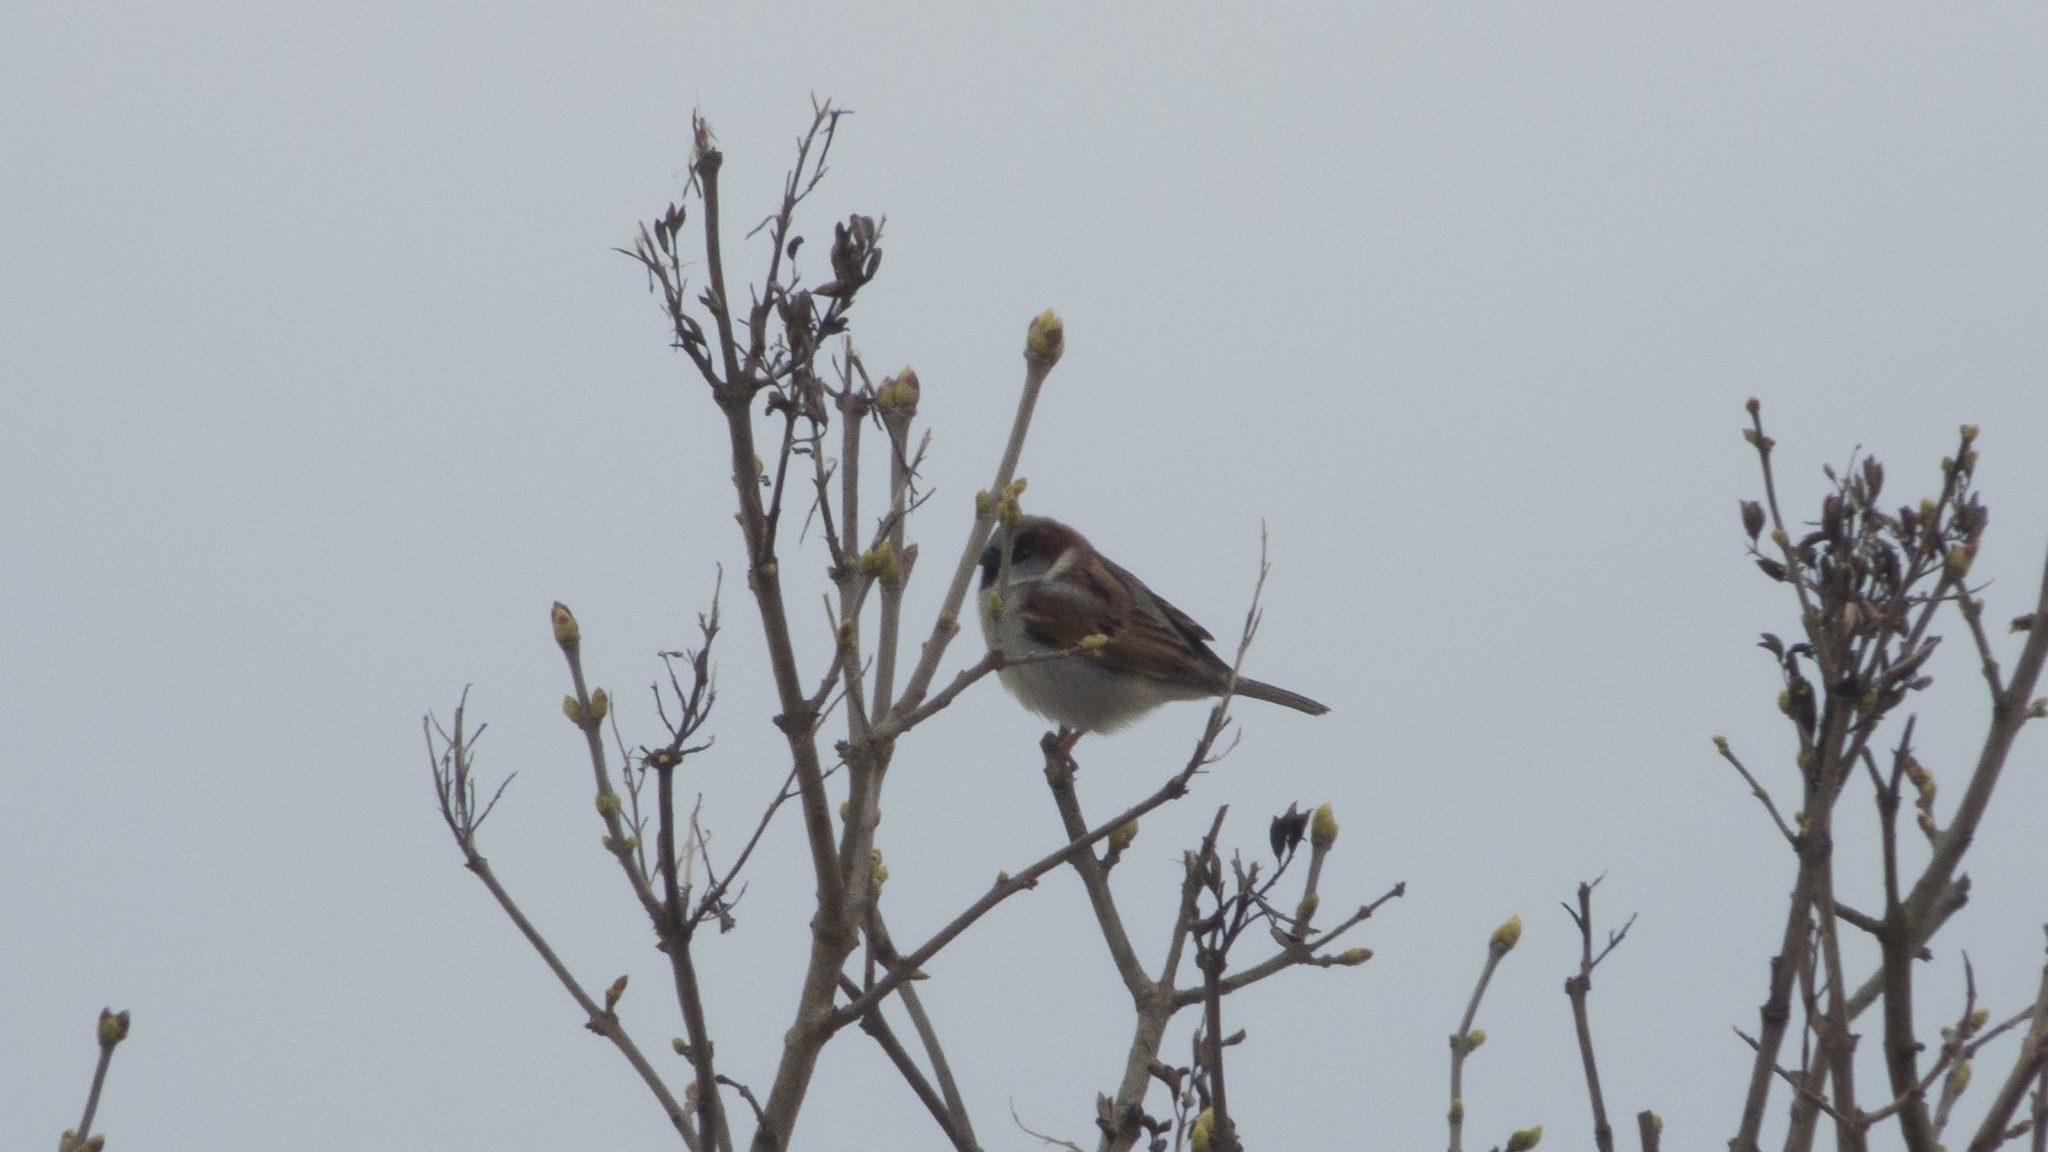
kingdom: Animalia
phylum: Chordata
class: Aves
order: Passeriformes
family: Passeridae
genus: Passer
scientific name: Passer domesticus
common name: House sparrow
